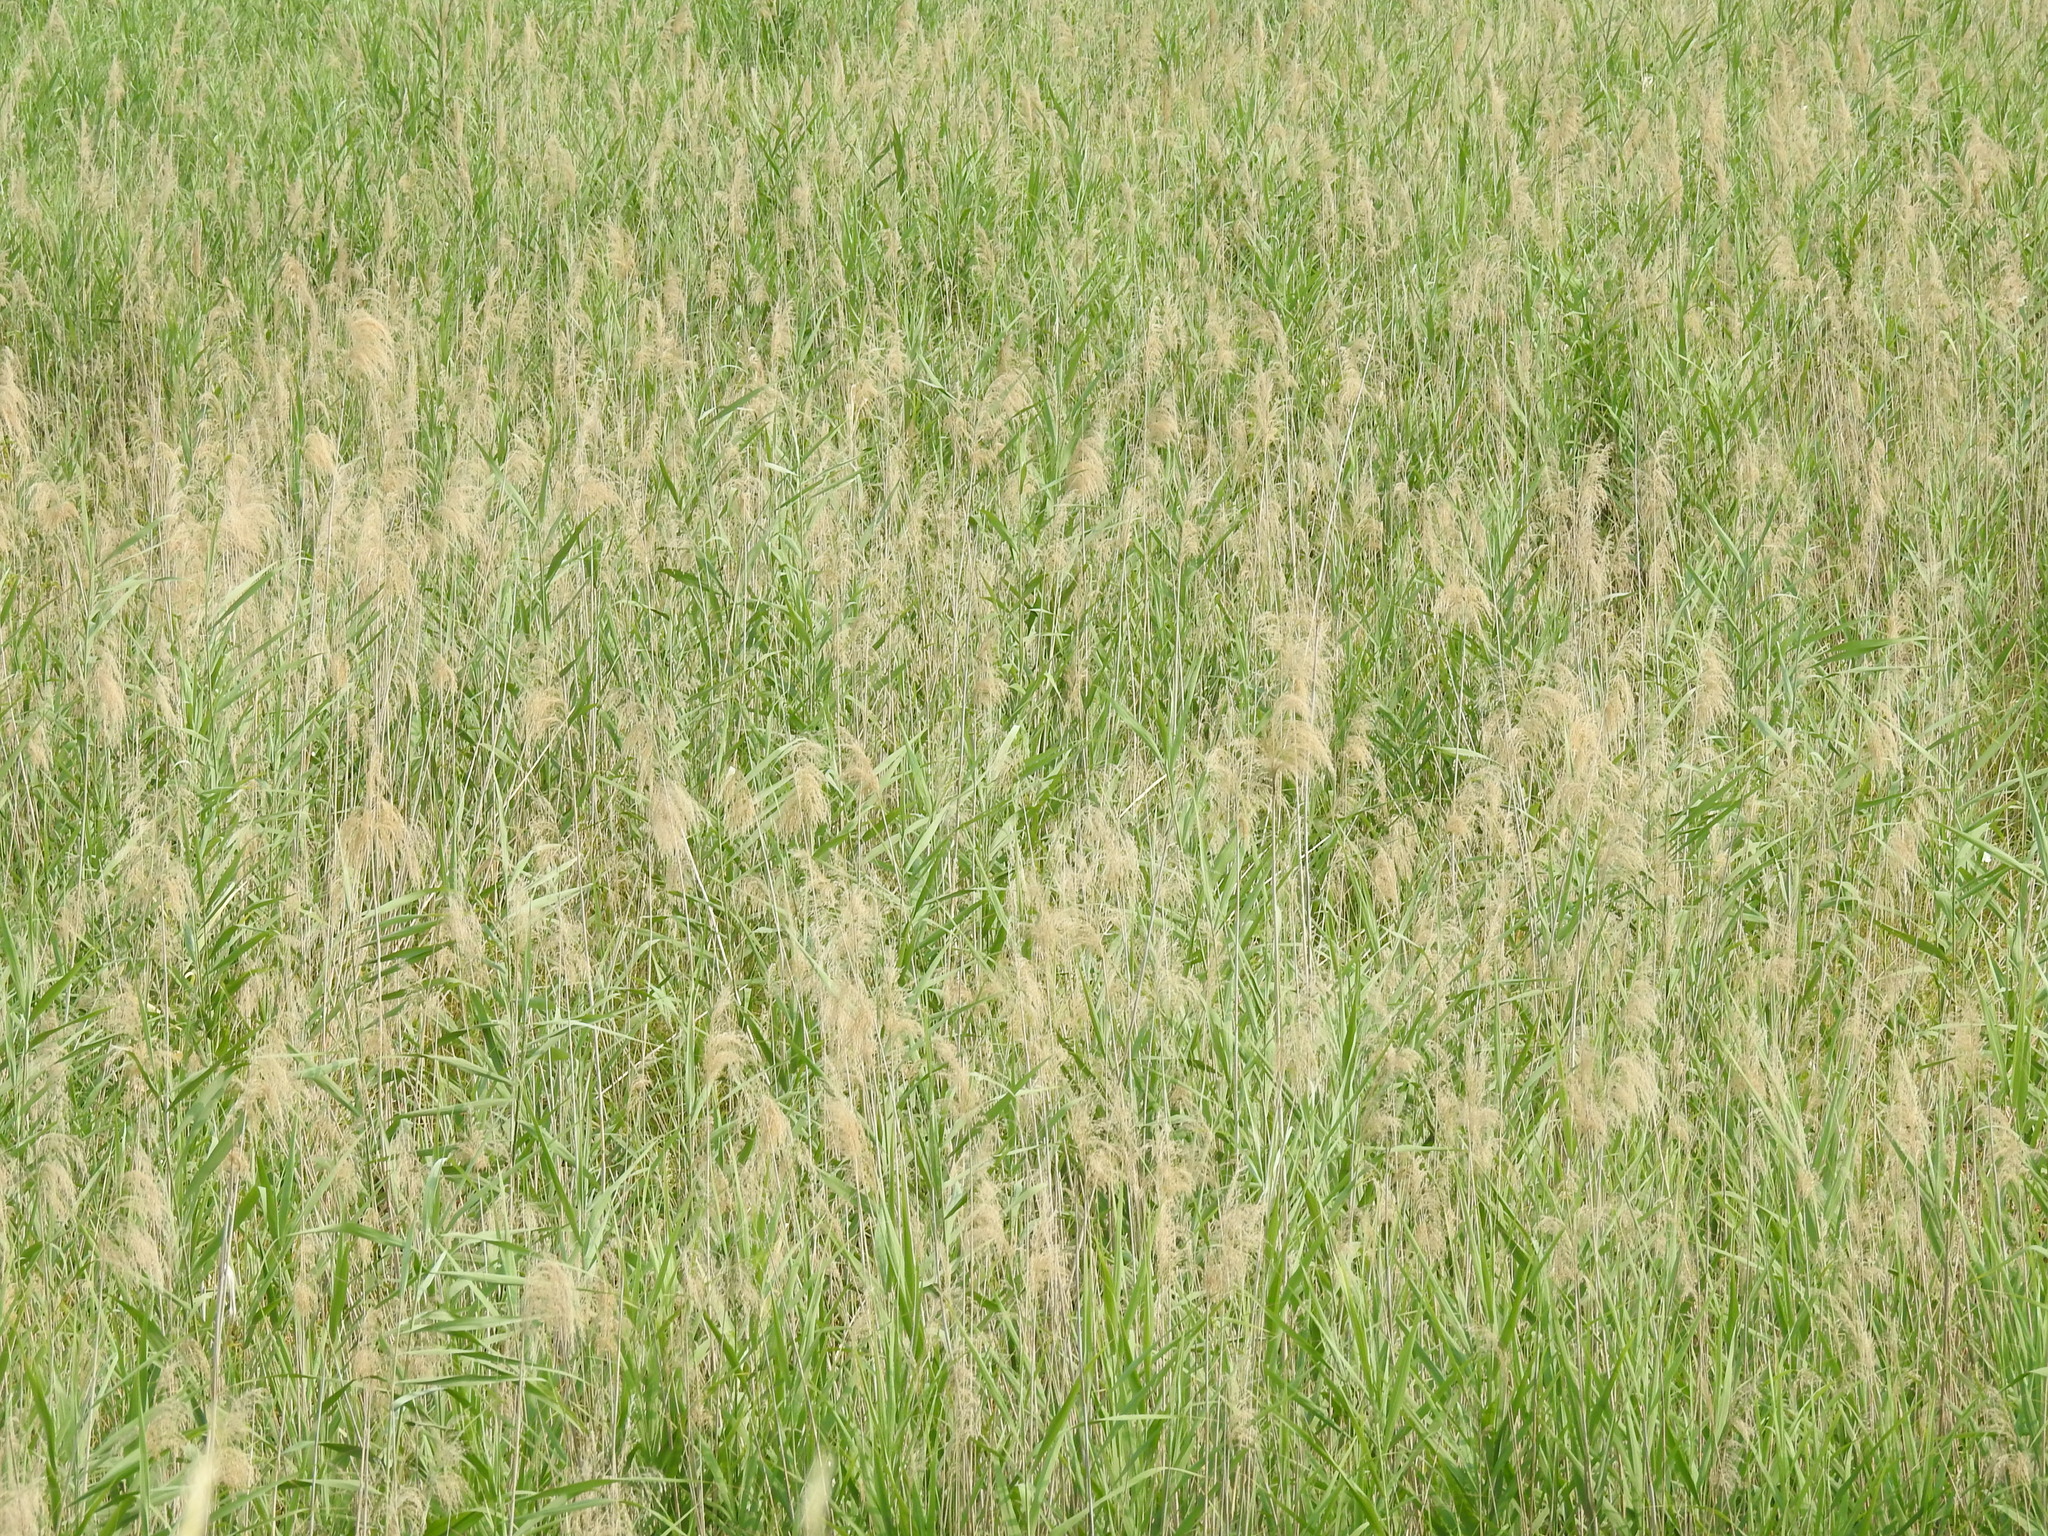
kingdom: Plantae
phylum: Tracheophyta
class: Liliopsida
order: Poales
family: Poaceae
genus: Phragmites
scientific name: Phragmites australis
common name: Common reed
